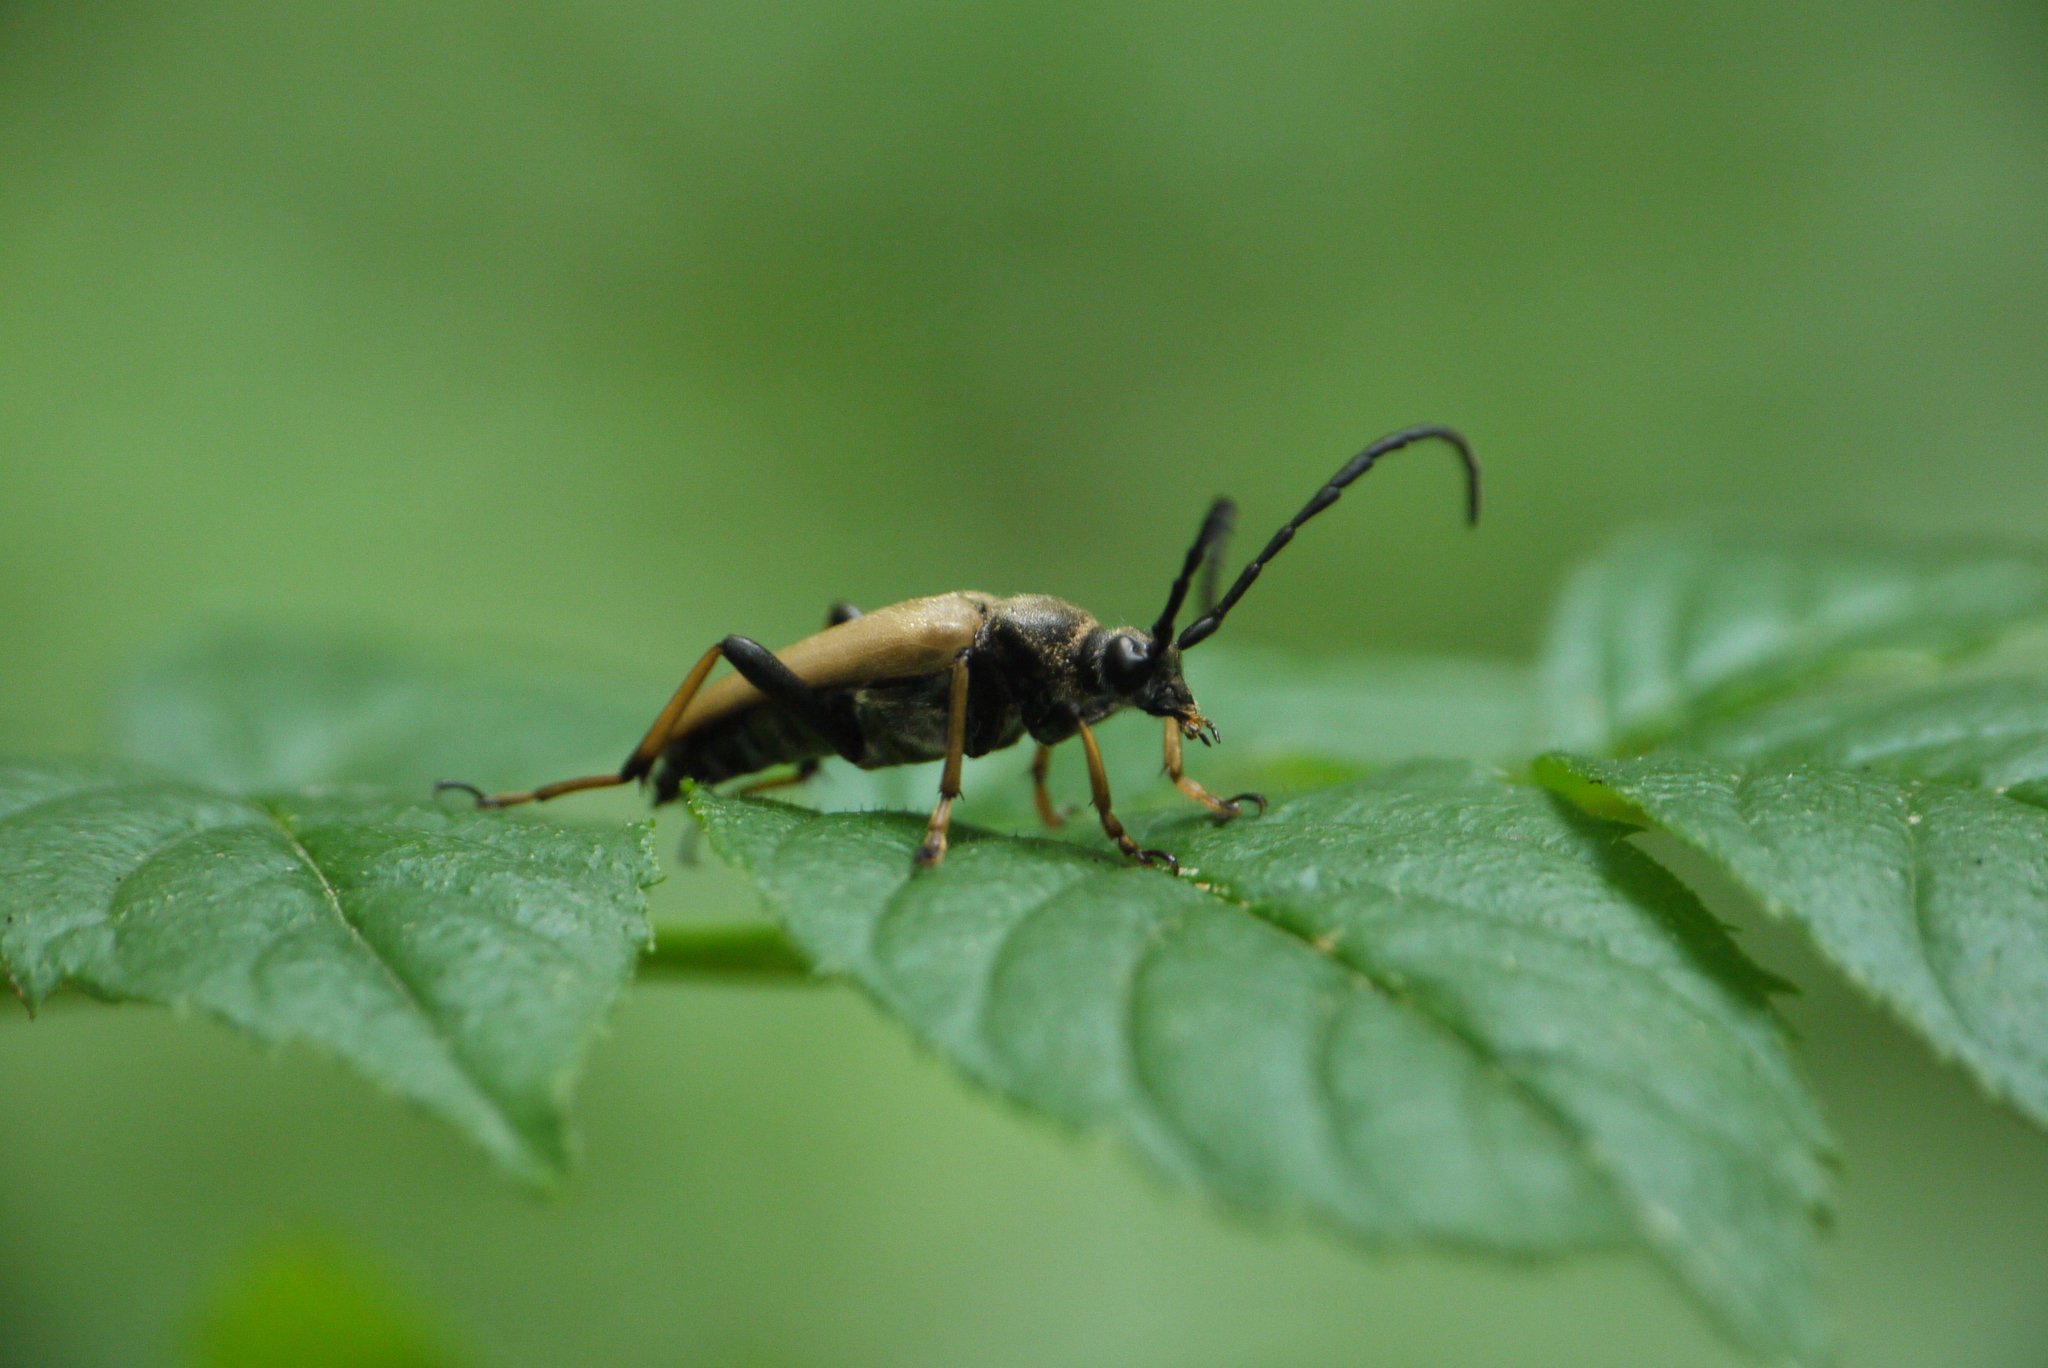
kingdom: Animalia
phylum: Arthropoda
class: Insecta
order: Coleoptera
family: Cerambycidae
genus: Stictoleptura
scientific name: Stictoleptura rubra
